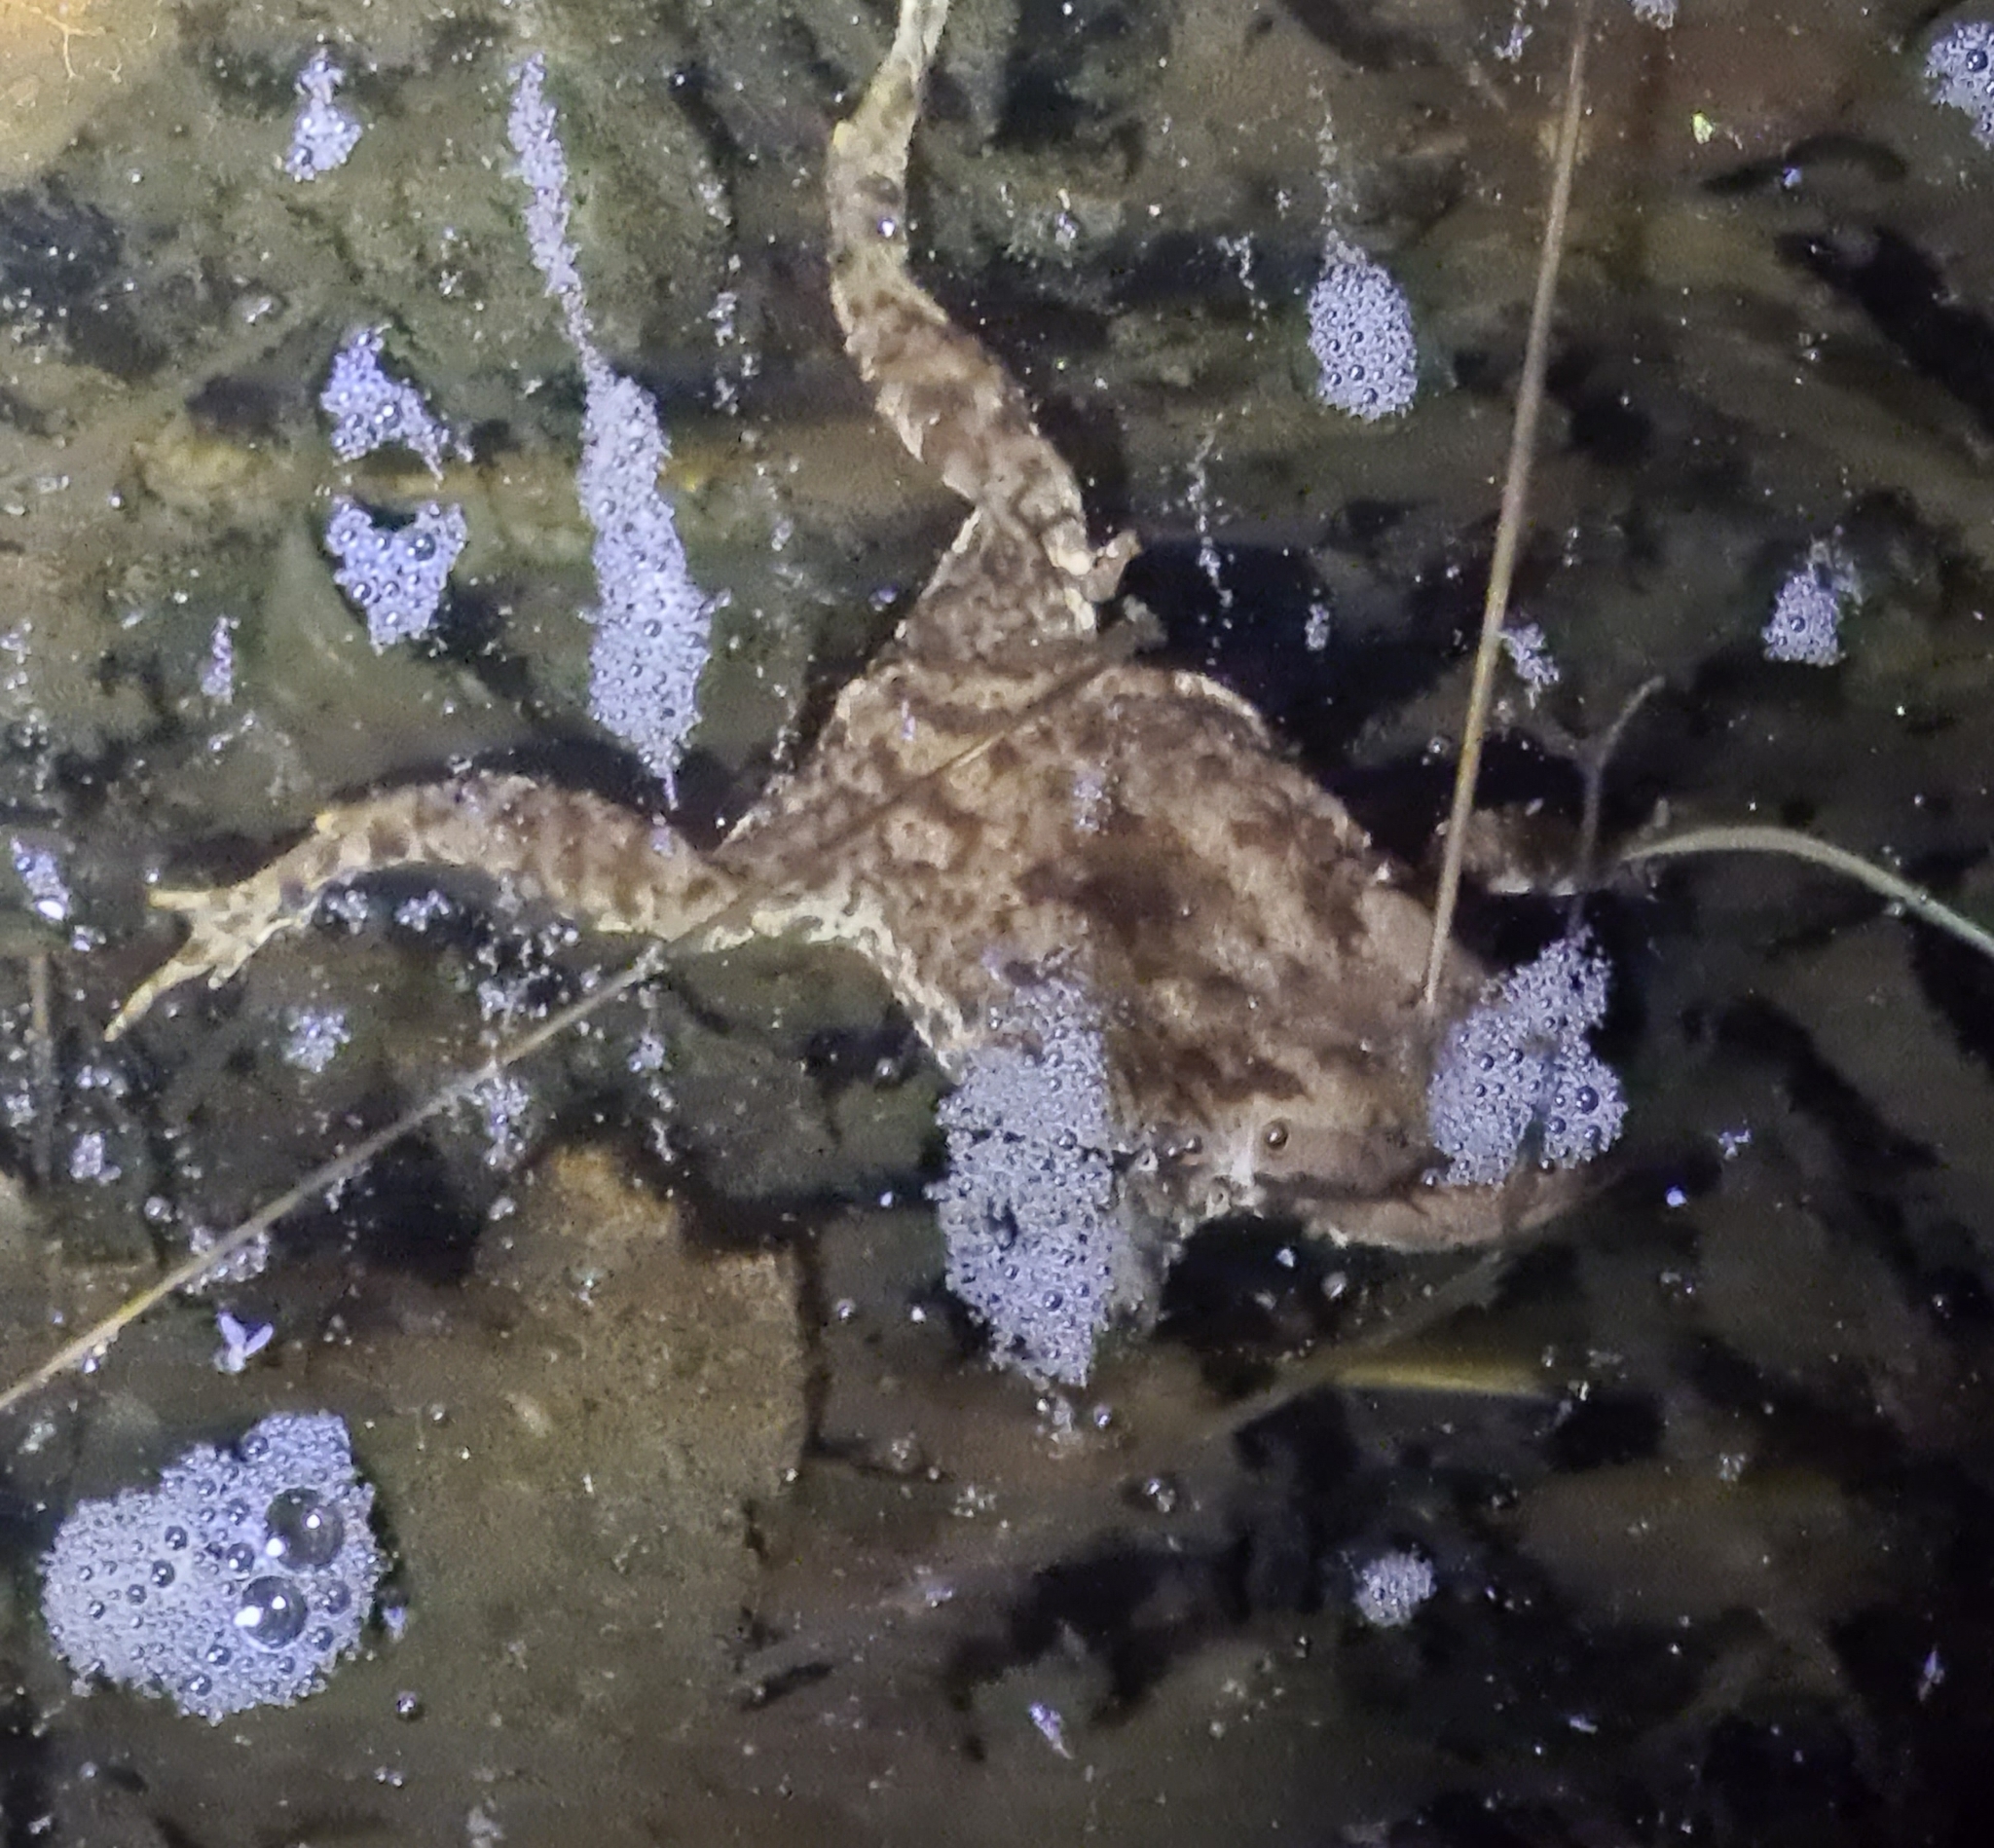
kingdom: Animalia
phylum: Chordata
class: Amphibia
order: Anura
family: Bufonidae
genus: Bufo
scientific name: Bufo bufo
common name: Common toad
